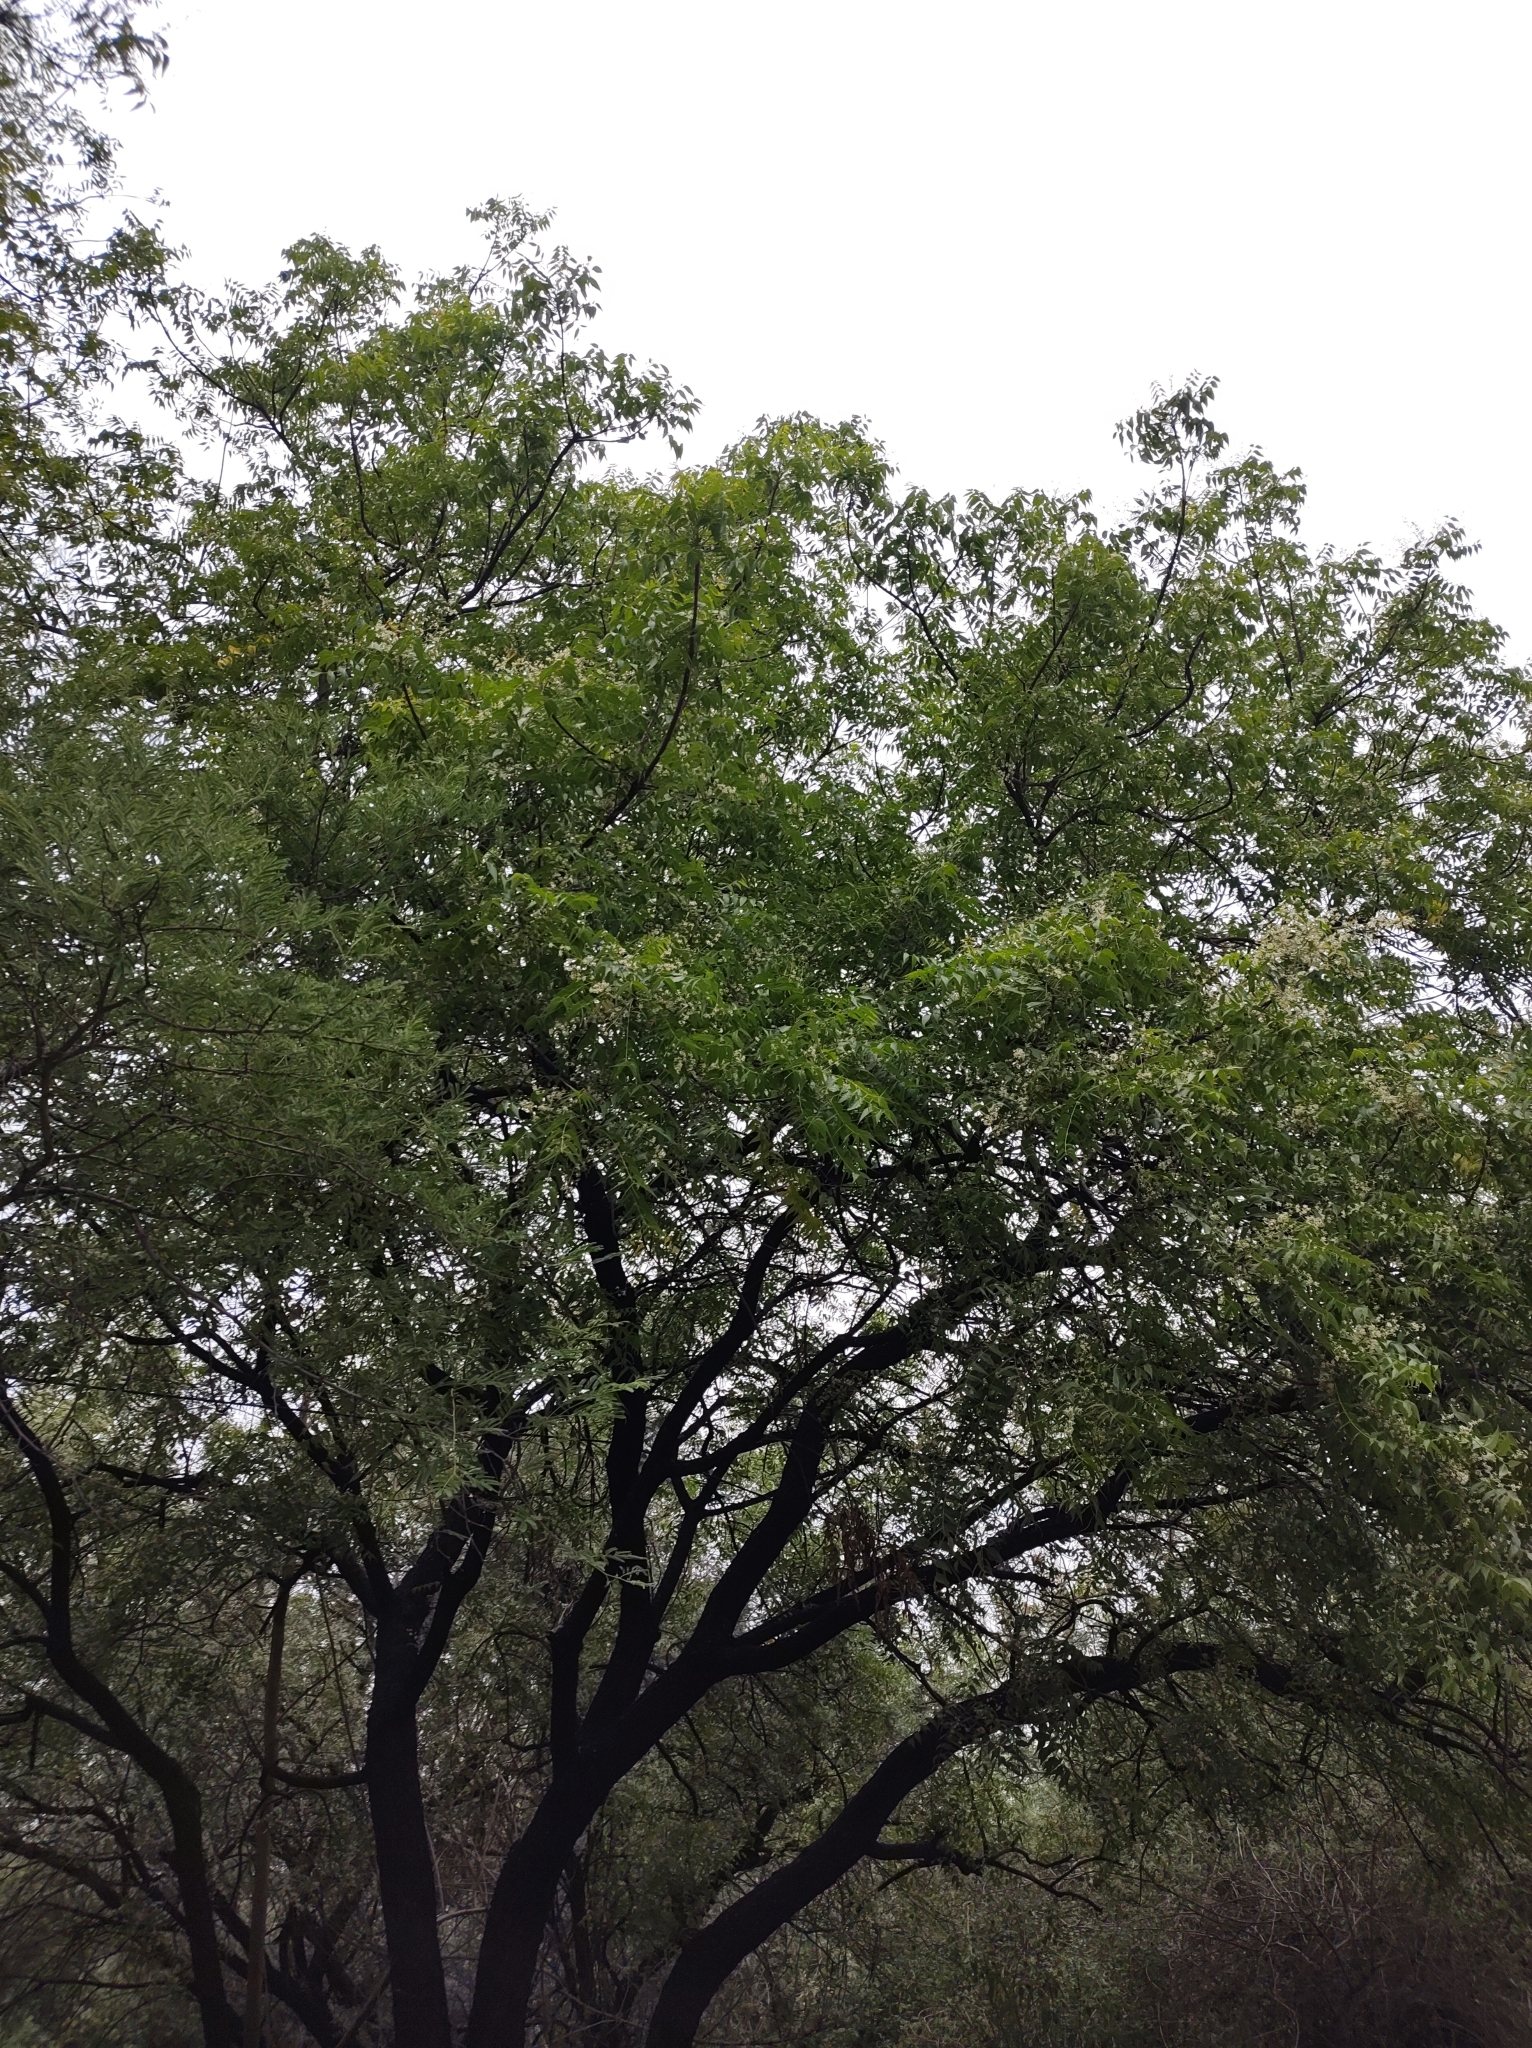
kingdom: Plantae
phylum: Tracheophyta
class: Magnoliopsida
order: Sapindales
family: Meliaceae
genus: Azadirachta
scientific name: Azadirachta indica
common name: Neem
